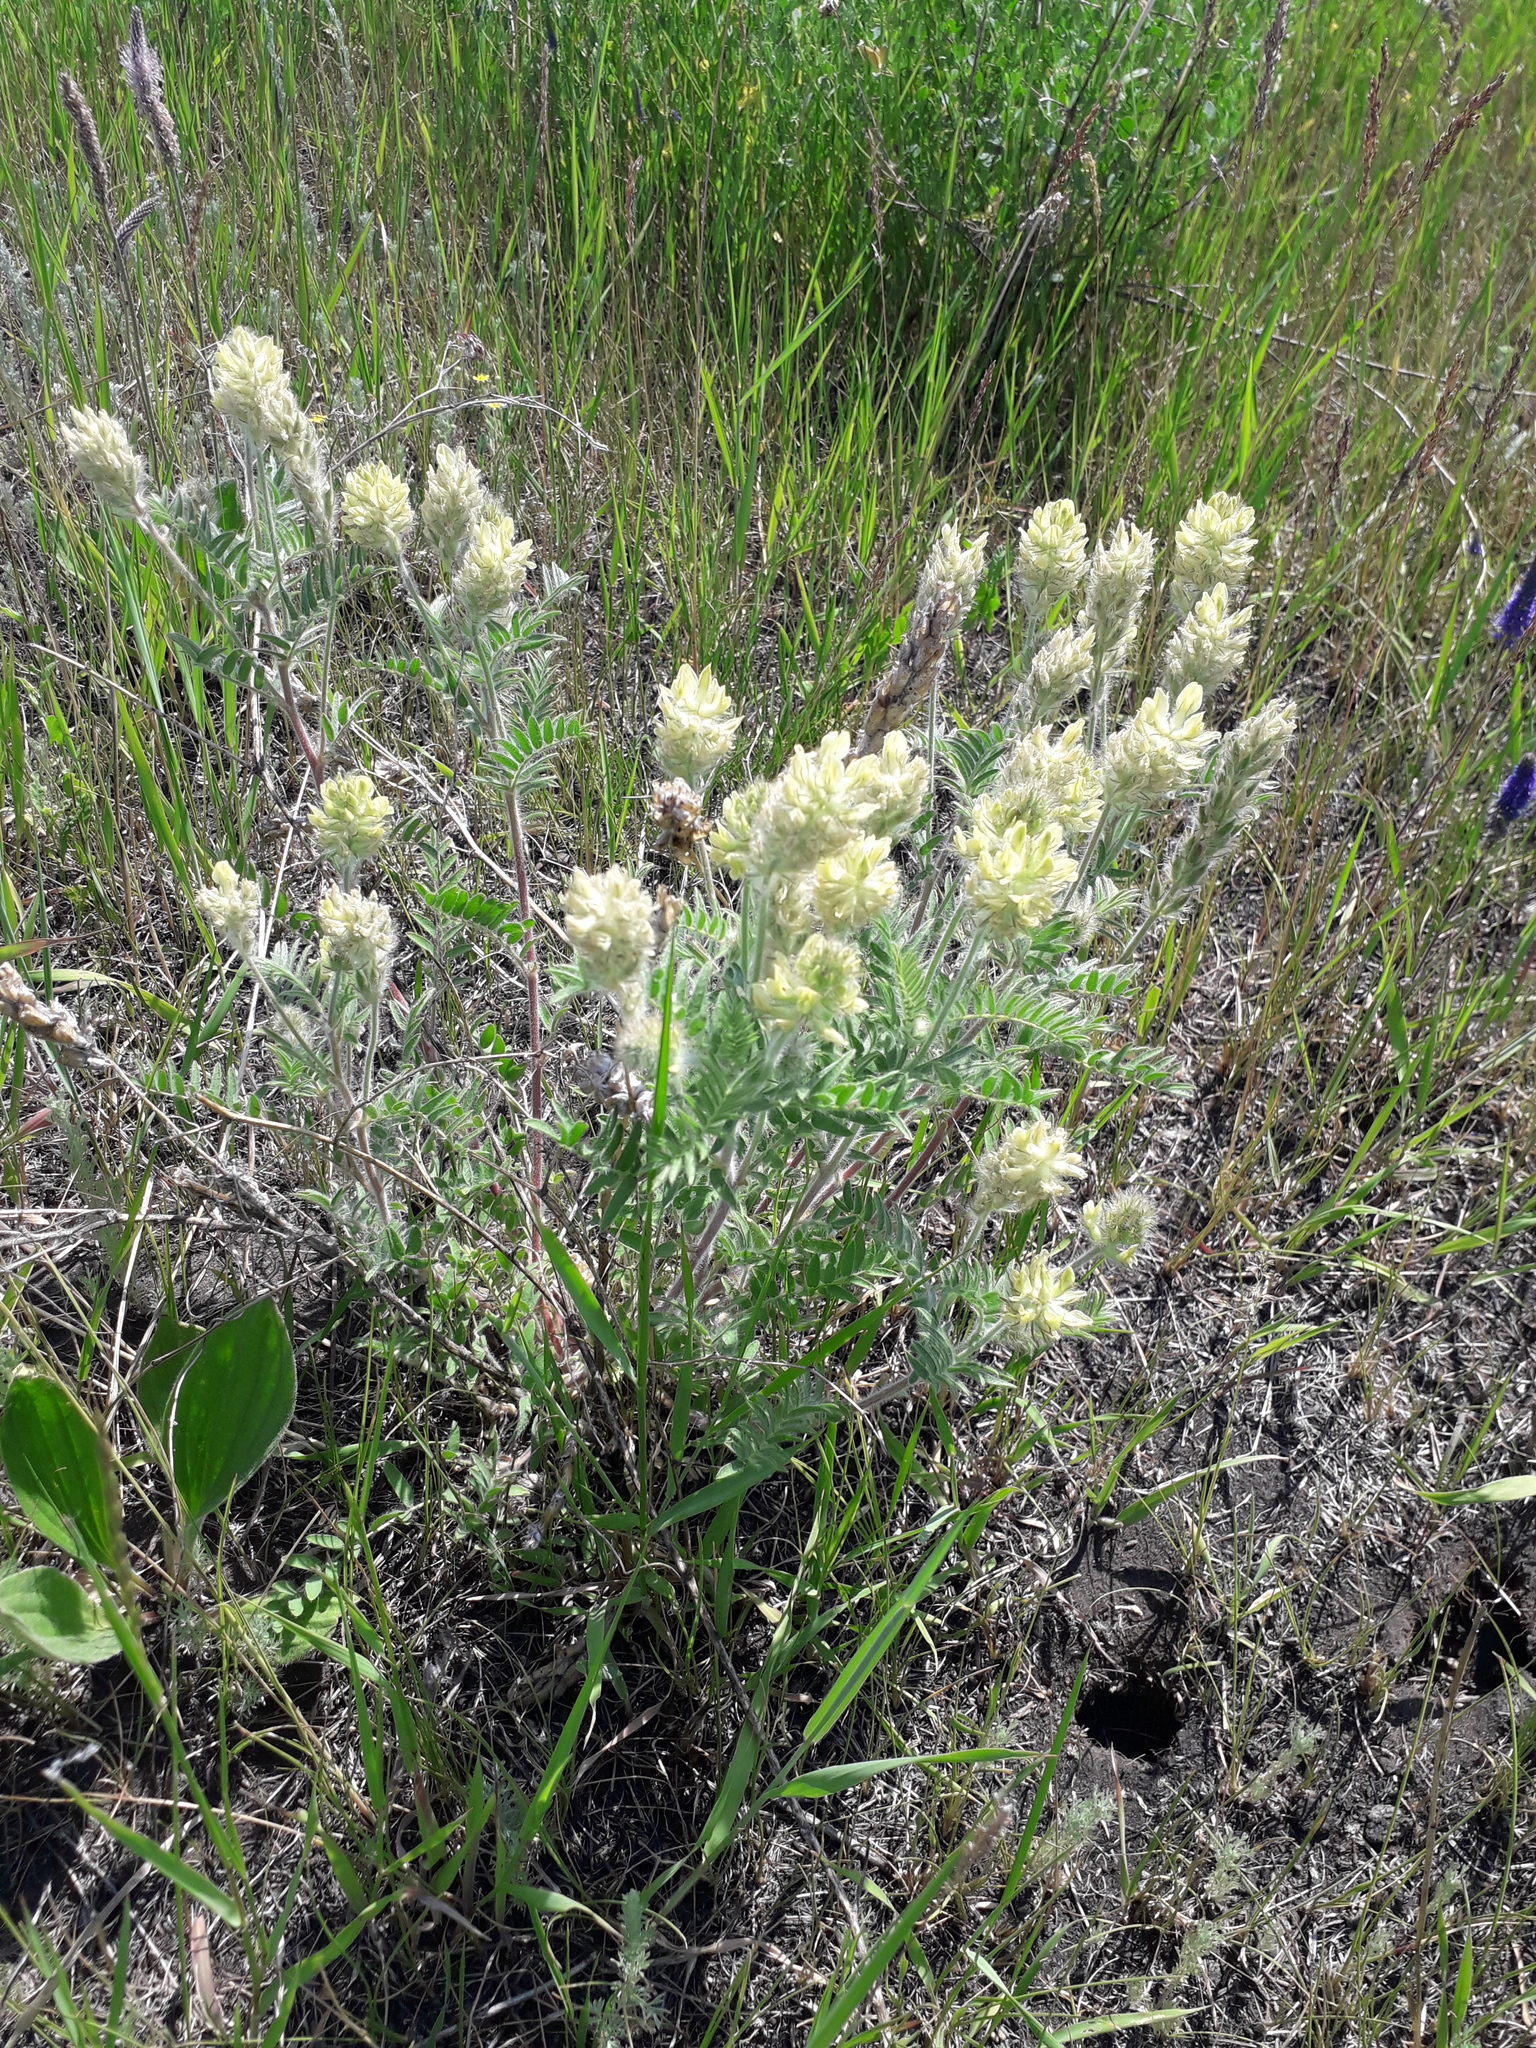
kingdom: Plantae
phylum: Tracheophyta
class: Magnoliopsida
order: Fabales
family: Fabaceae
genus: Oxytropis
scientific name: Oxytropis pilosa
